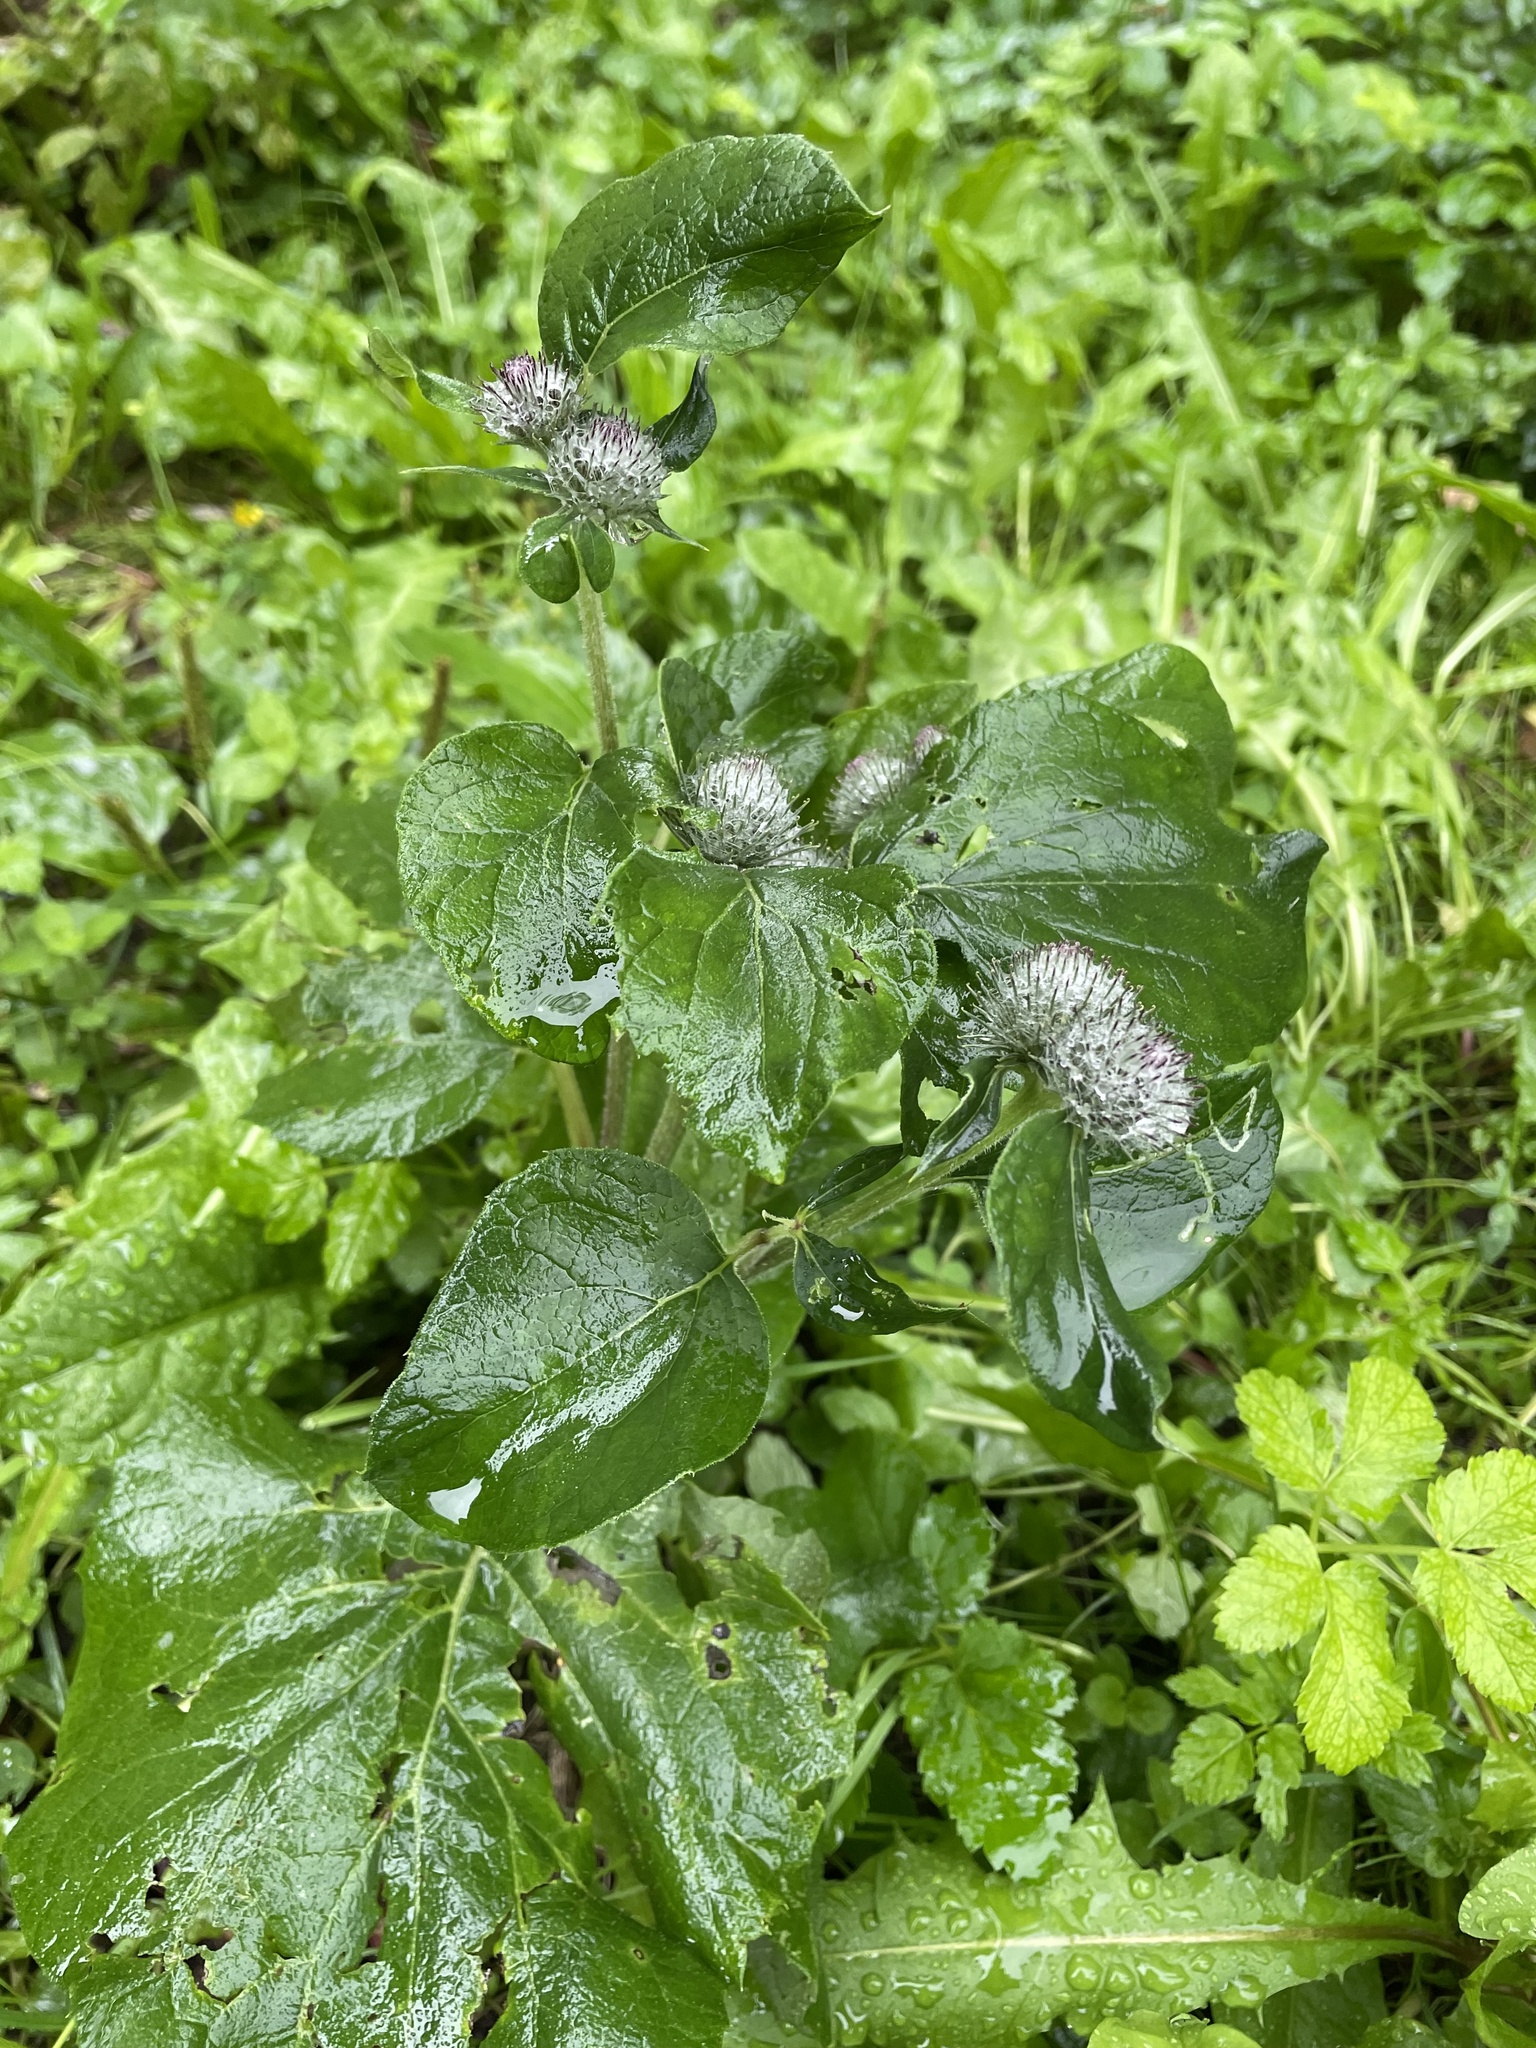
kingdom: Plantae
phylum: Tracheophyta
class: Magnoliopsida
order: Asterales
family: Asteraceae
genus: Arctium
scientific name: Arctium tomentosum
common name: Woolly burdock
